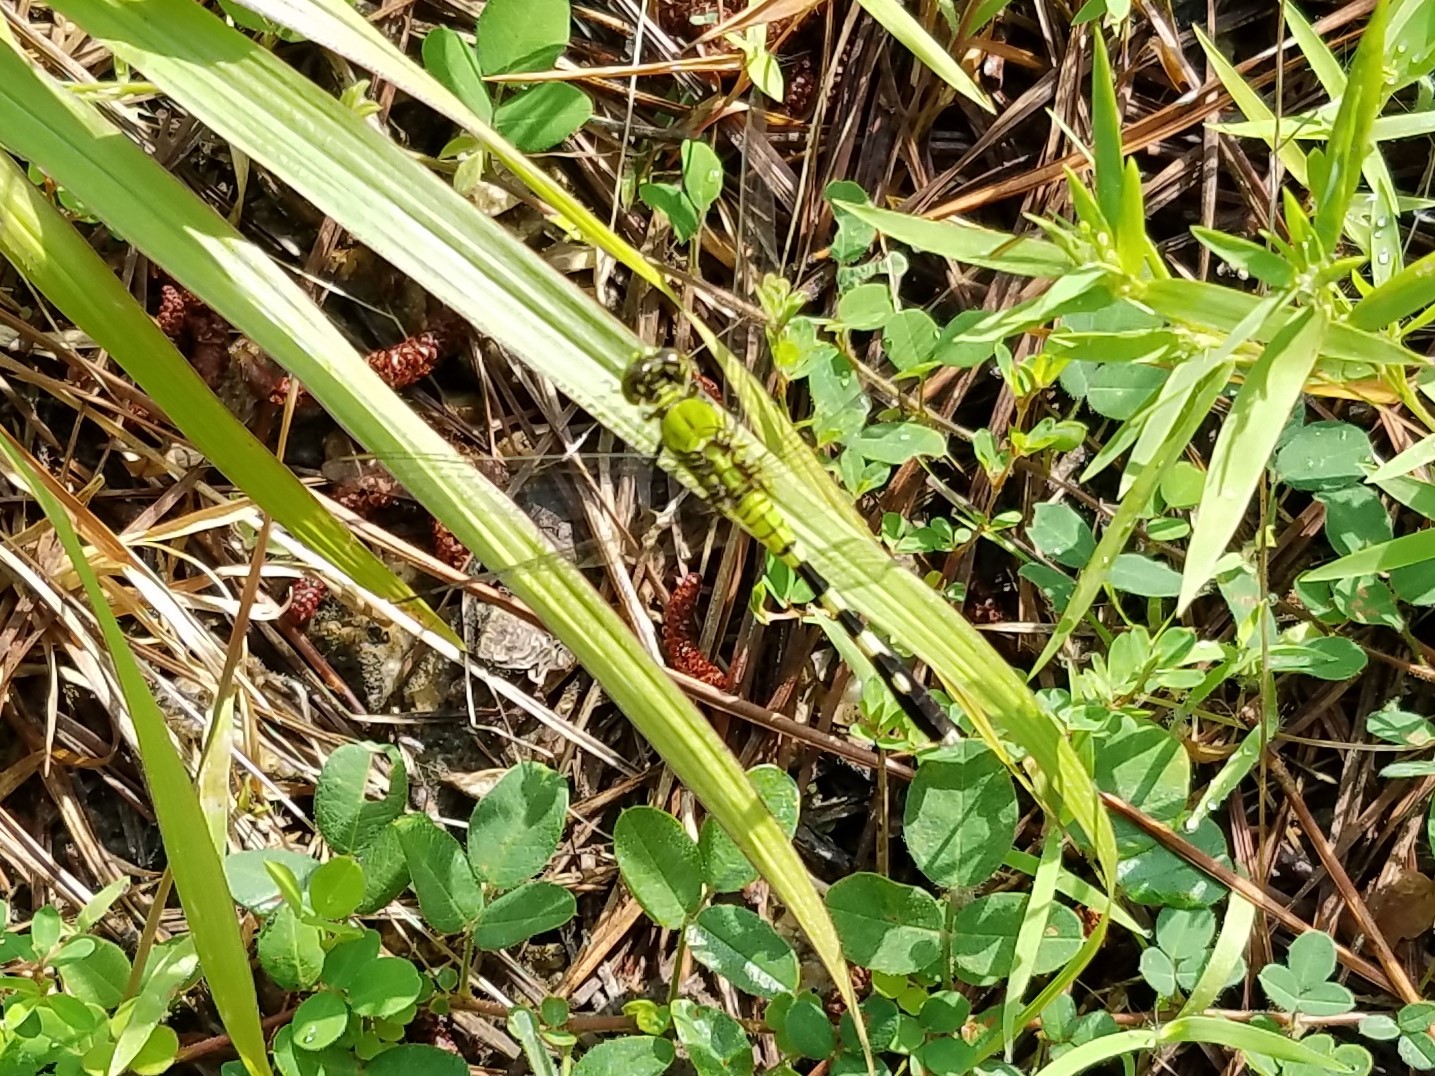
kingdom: Animalia
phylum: Arthropoda
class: Insecta
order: Odonata
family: Libellulidae
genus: Erythemis
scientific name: Erythemis simplicicollis
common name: Eastern pondhawk
